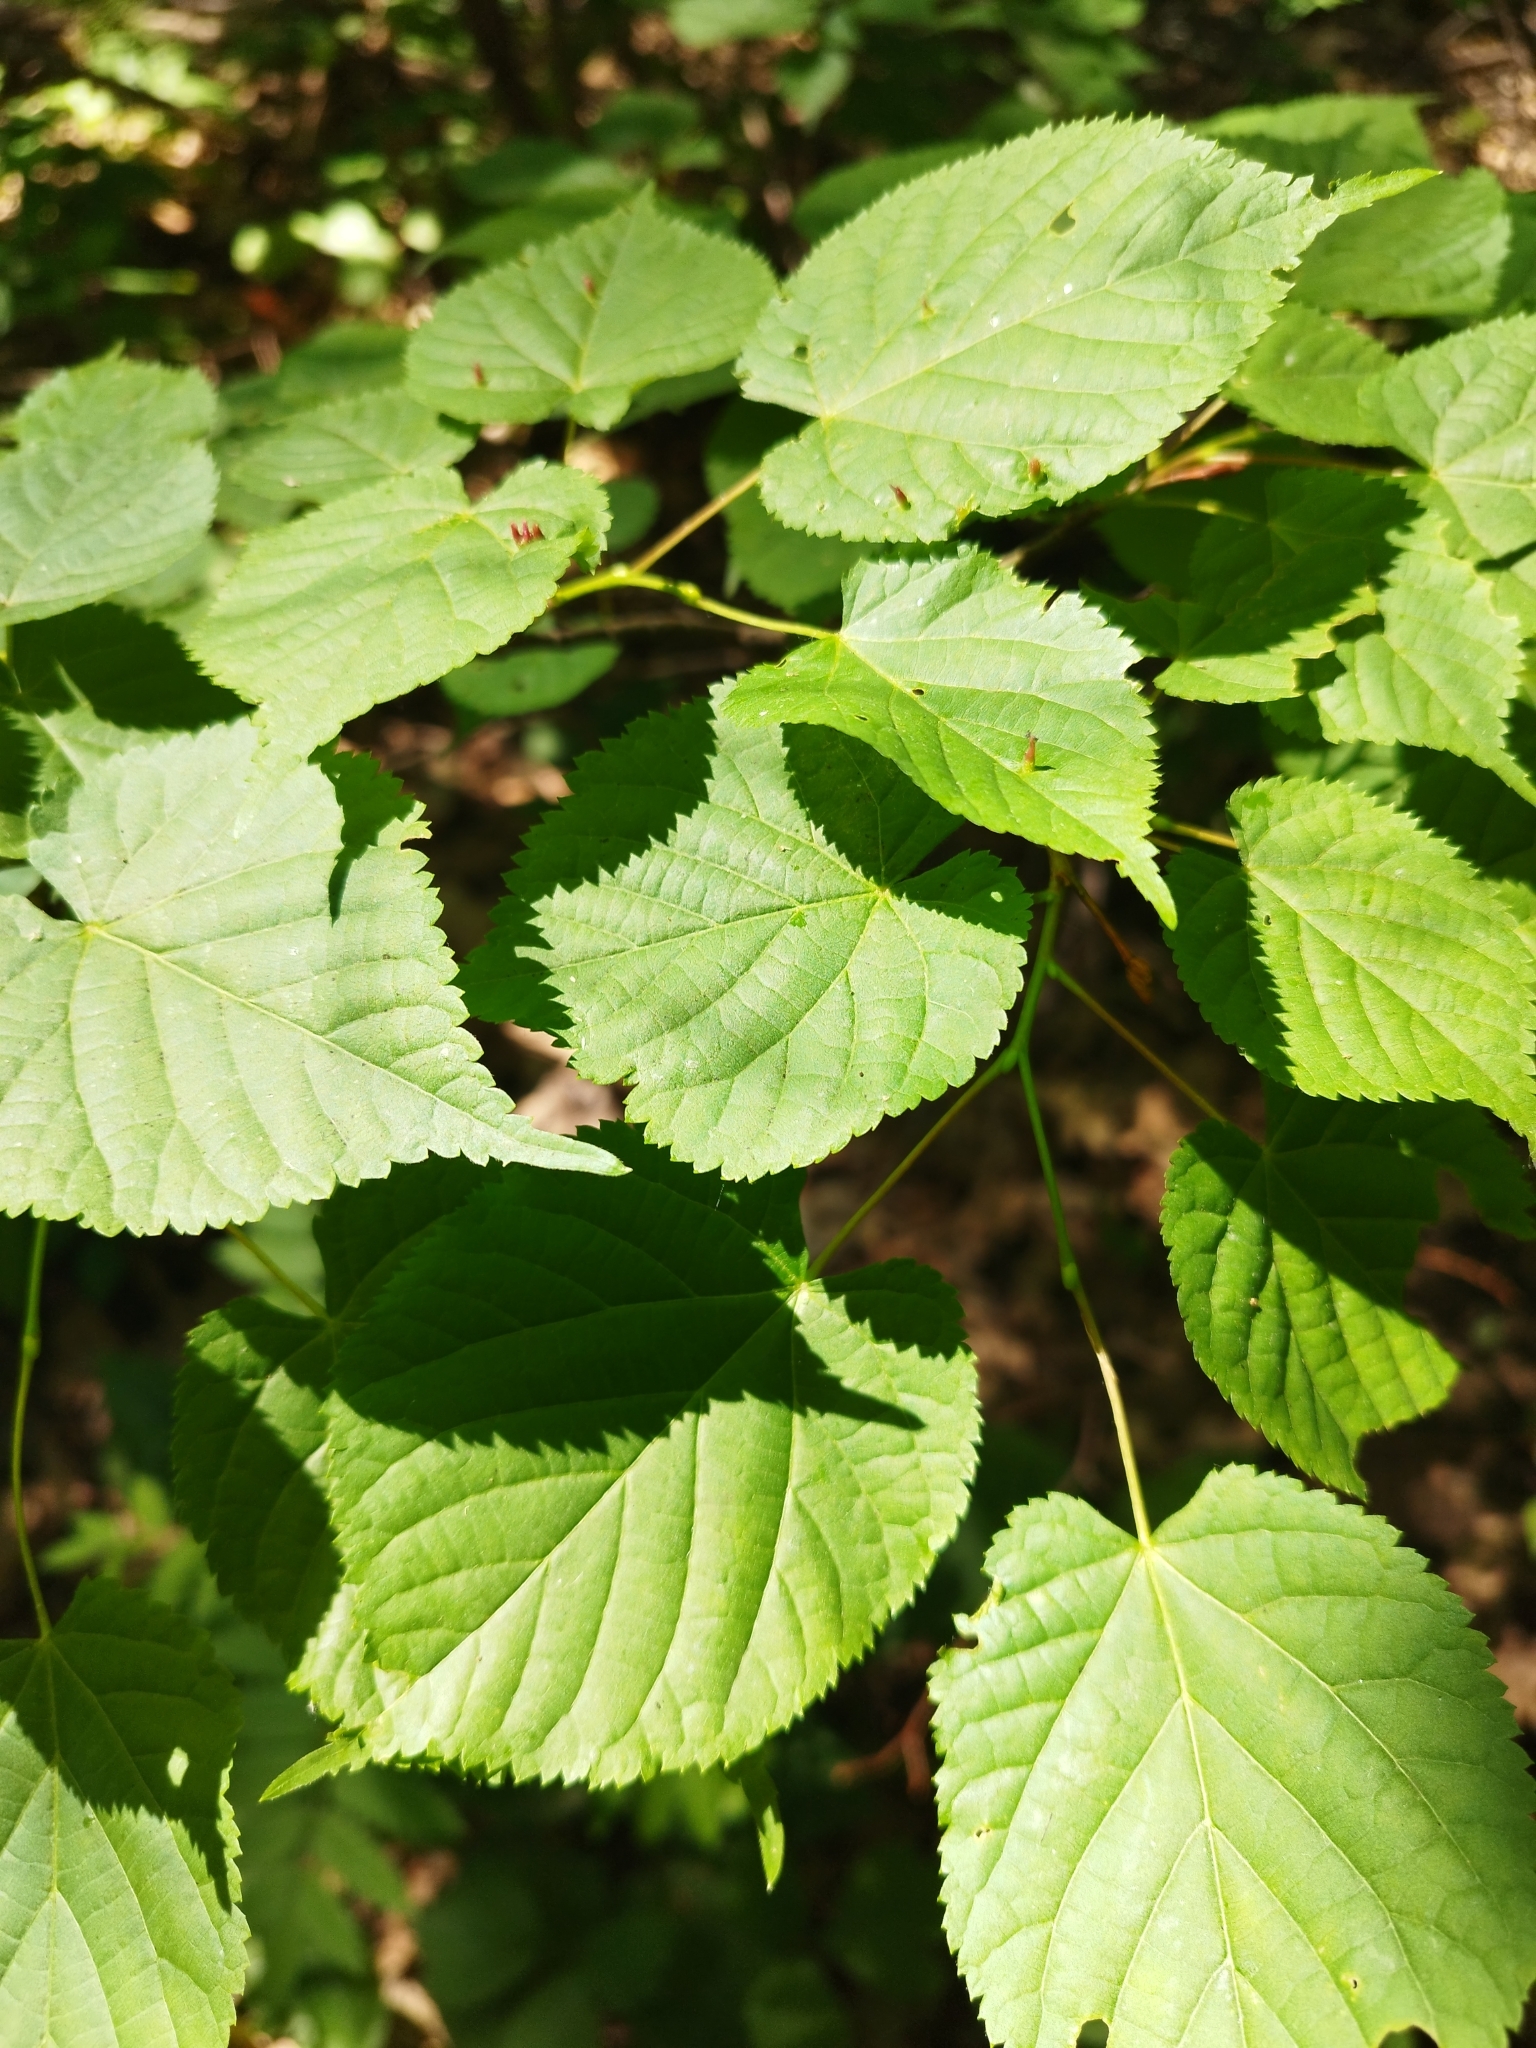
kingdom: Plantae
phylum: Tracheophyta
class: Magnoliopsida
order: Malvales
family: Malvaceae
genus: Tilia
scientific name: Tilia cordata
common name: Small-leaved lime
